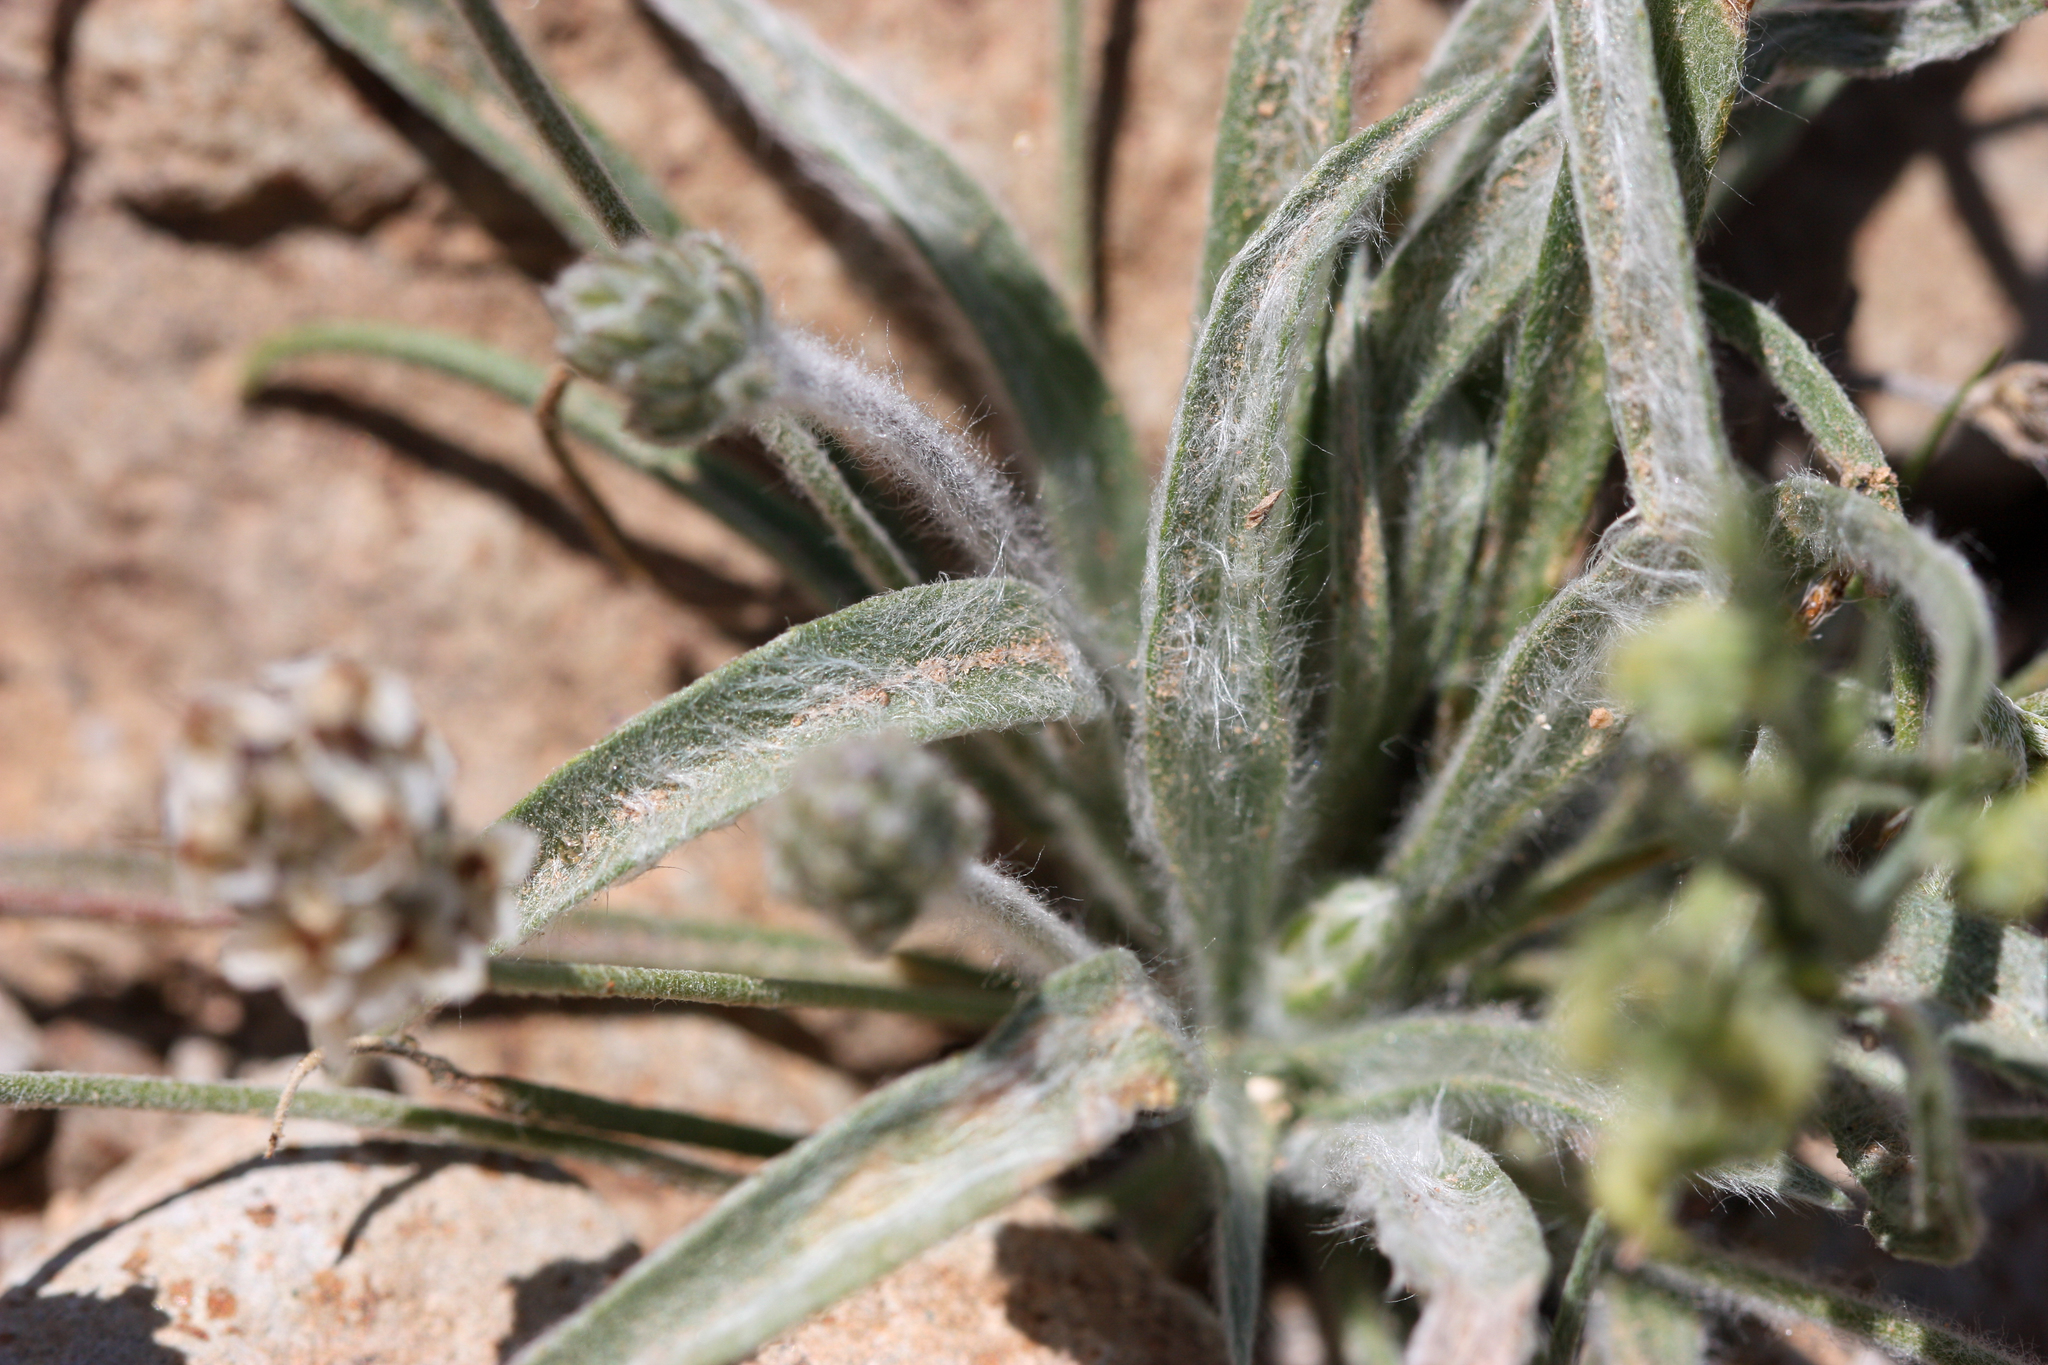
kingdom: Plantae
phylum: Tracheophyta
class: Magnoliopsida
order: Lamiales
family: Plantaginaceae
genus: Plantago
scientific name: Plantago ovata
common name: Blond plantain
